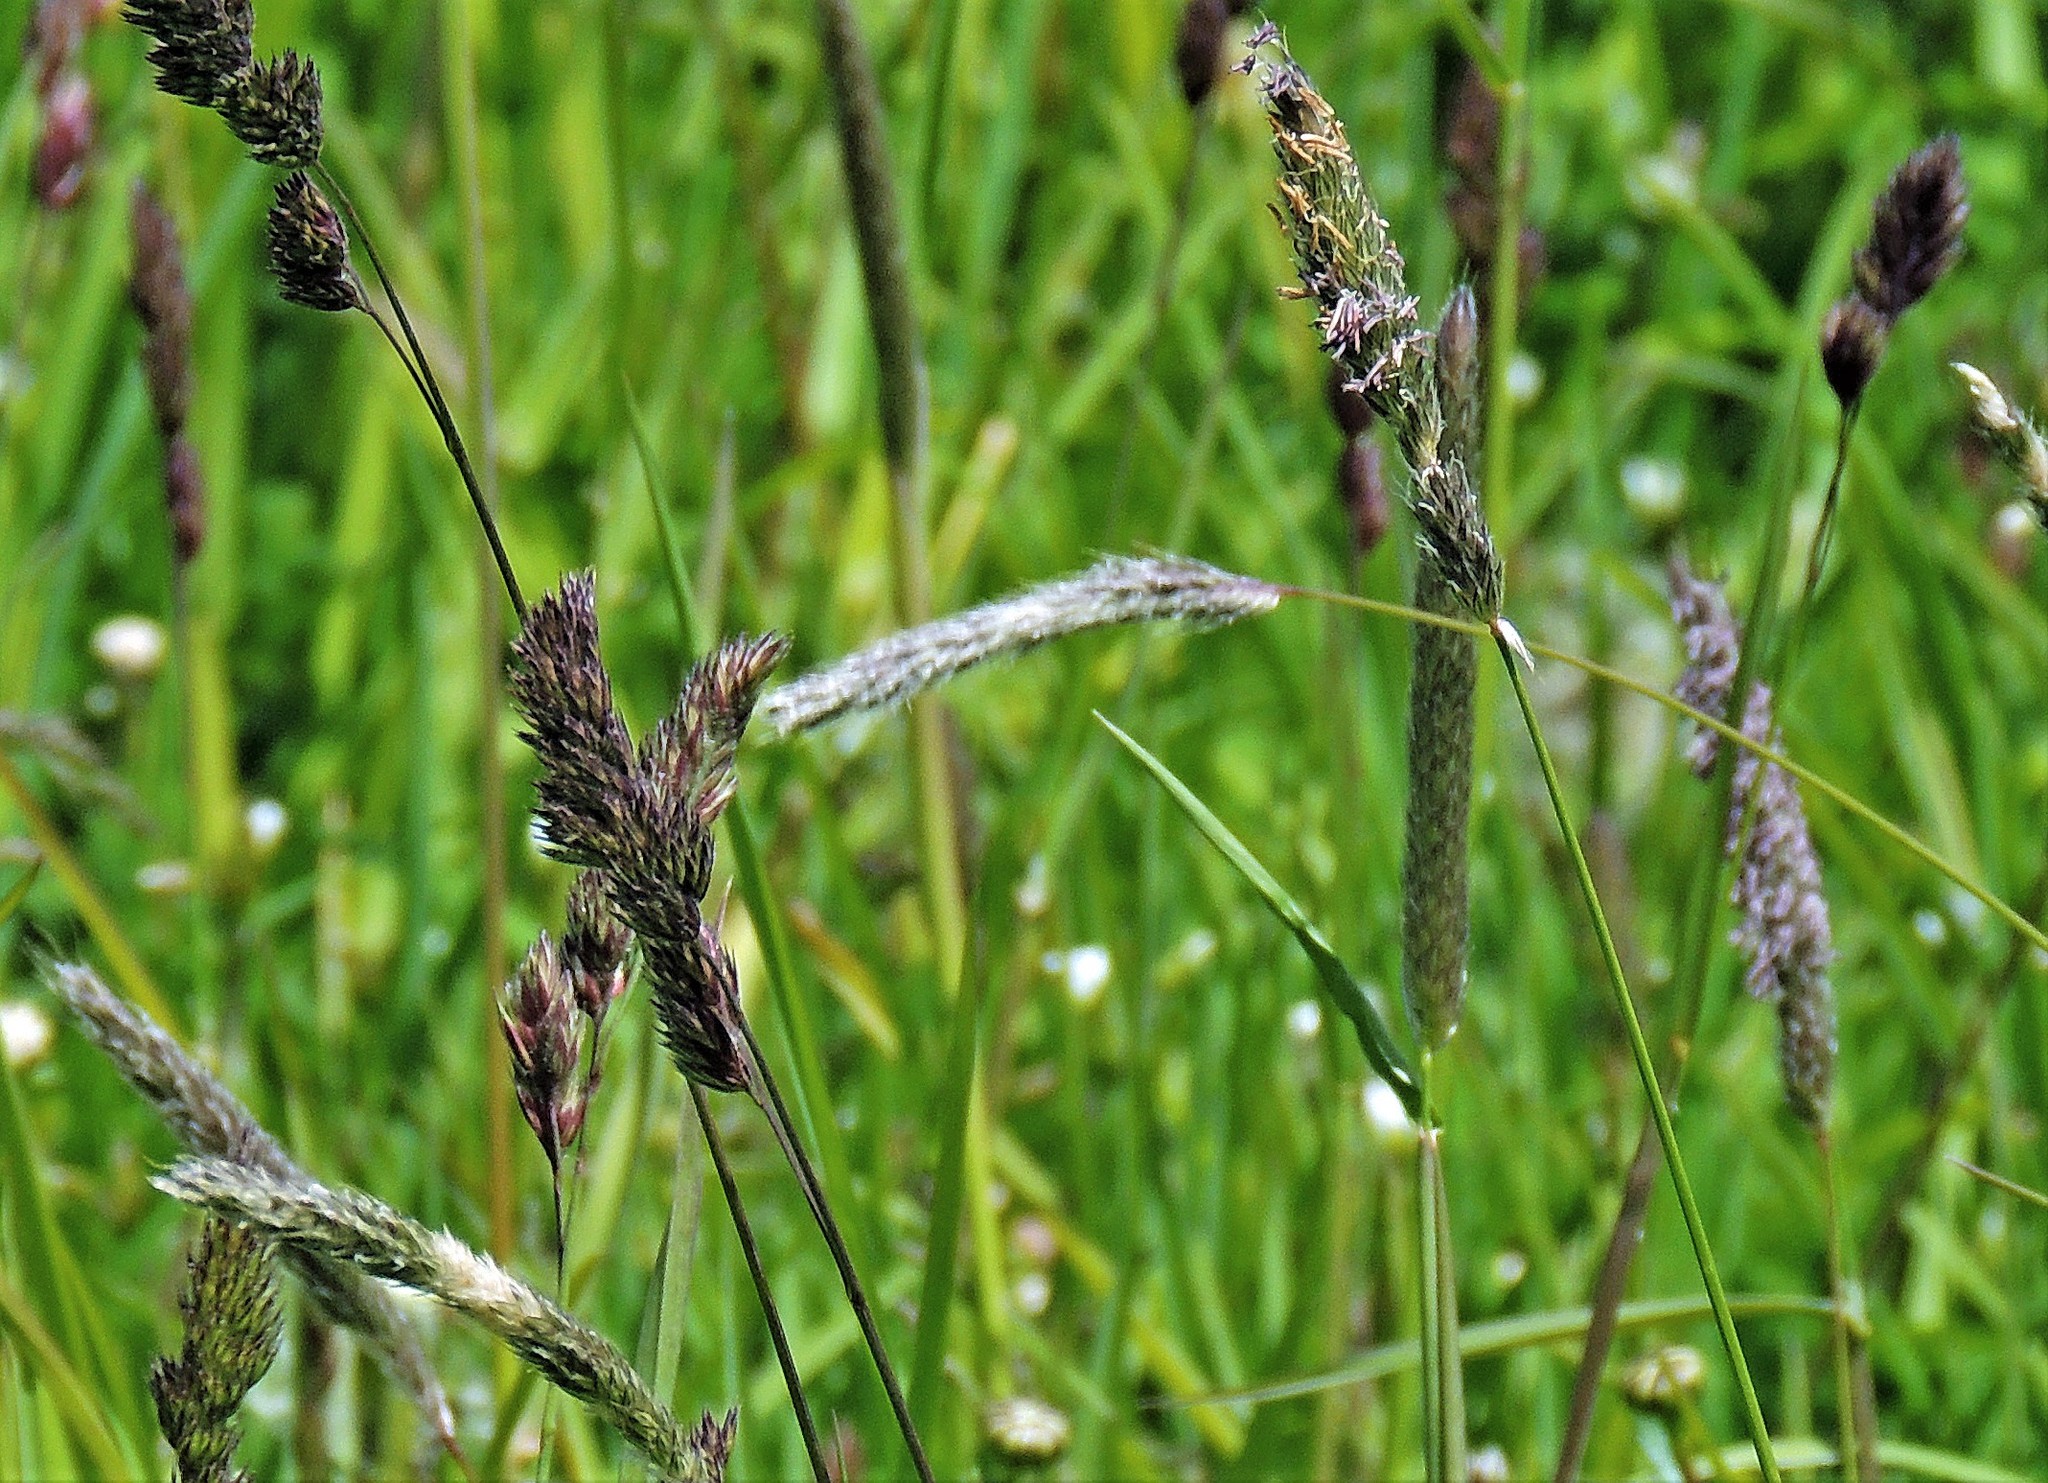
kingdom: Plantae
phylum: Tracheophyta
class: Liliopsida
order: Poales
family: Poaceae
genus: Alopecurus
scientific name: Alopecurus geniculatus
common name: Water foxtail
